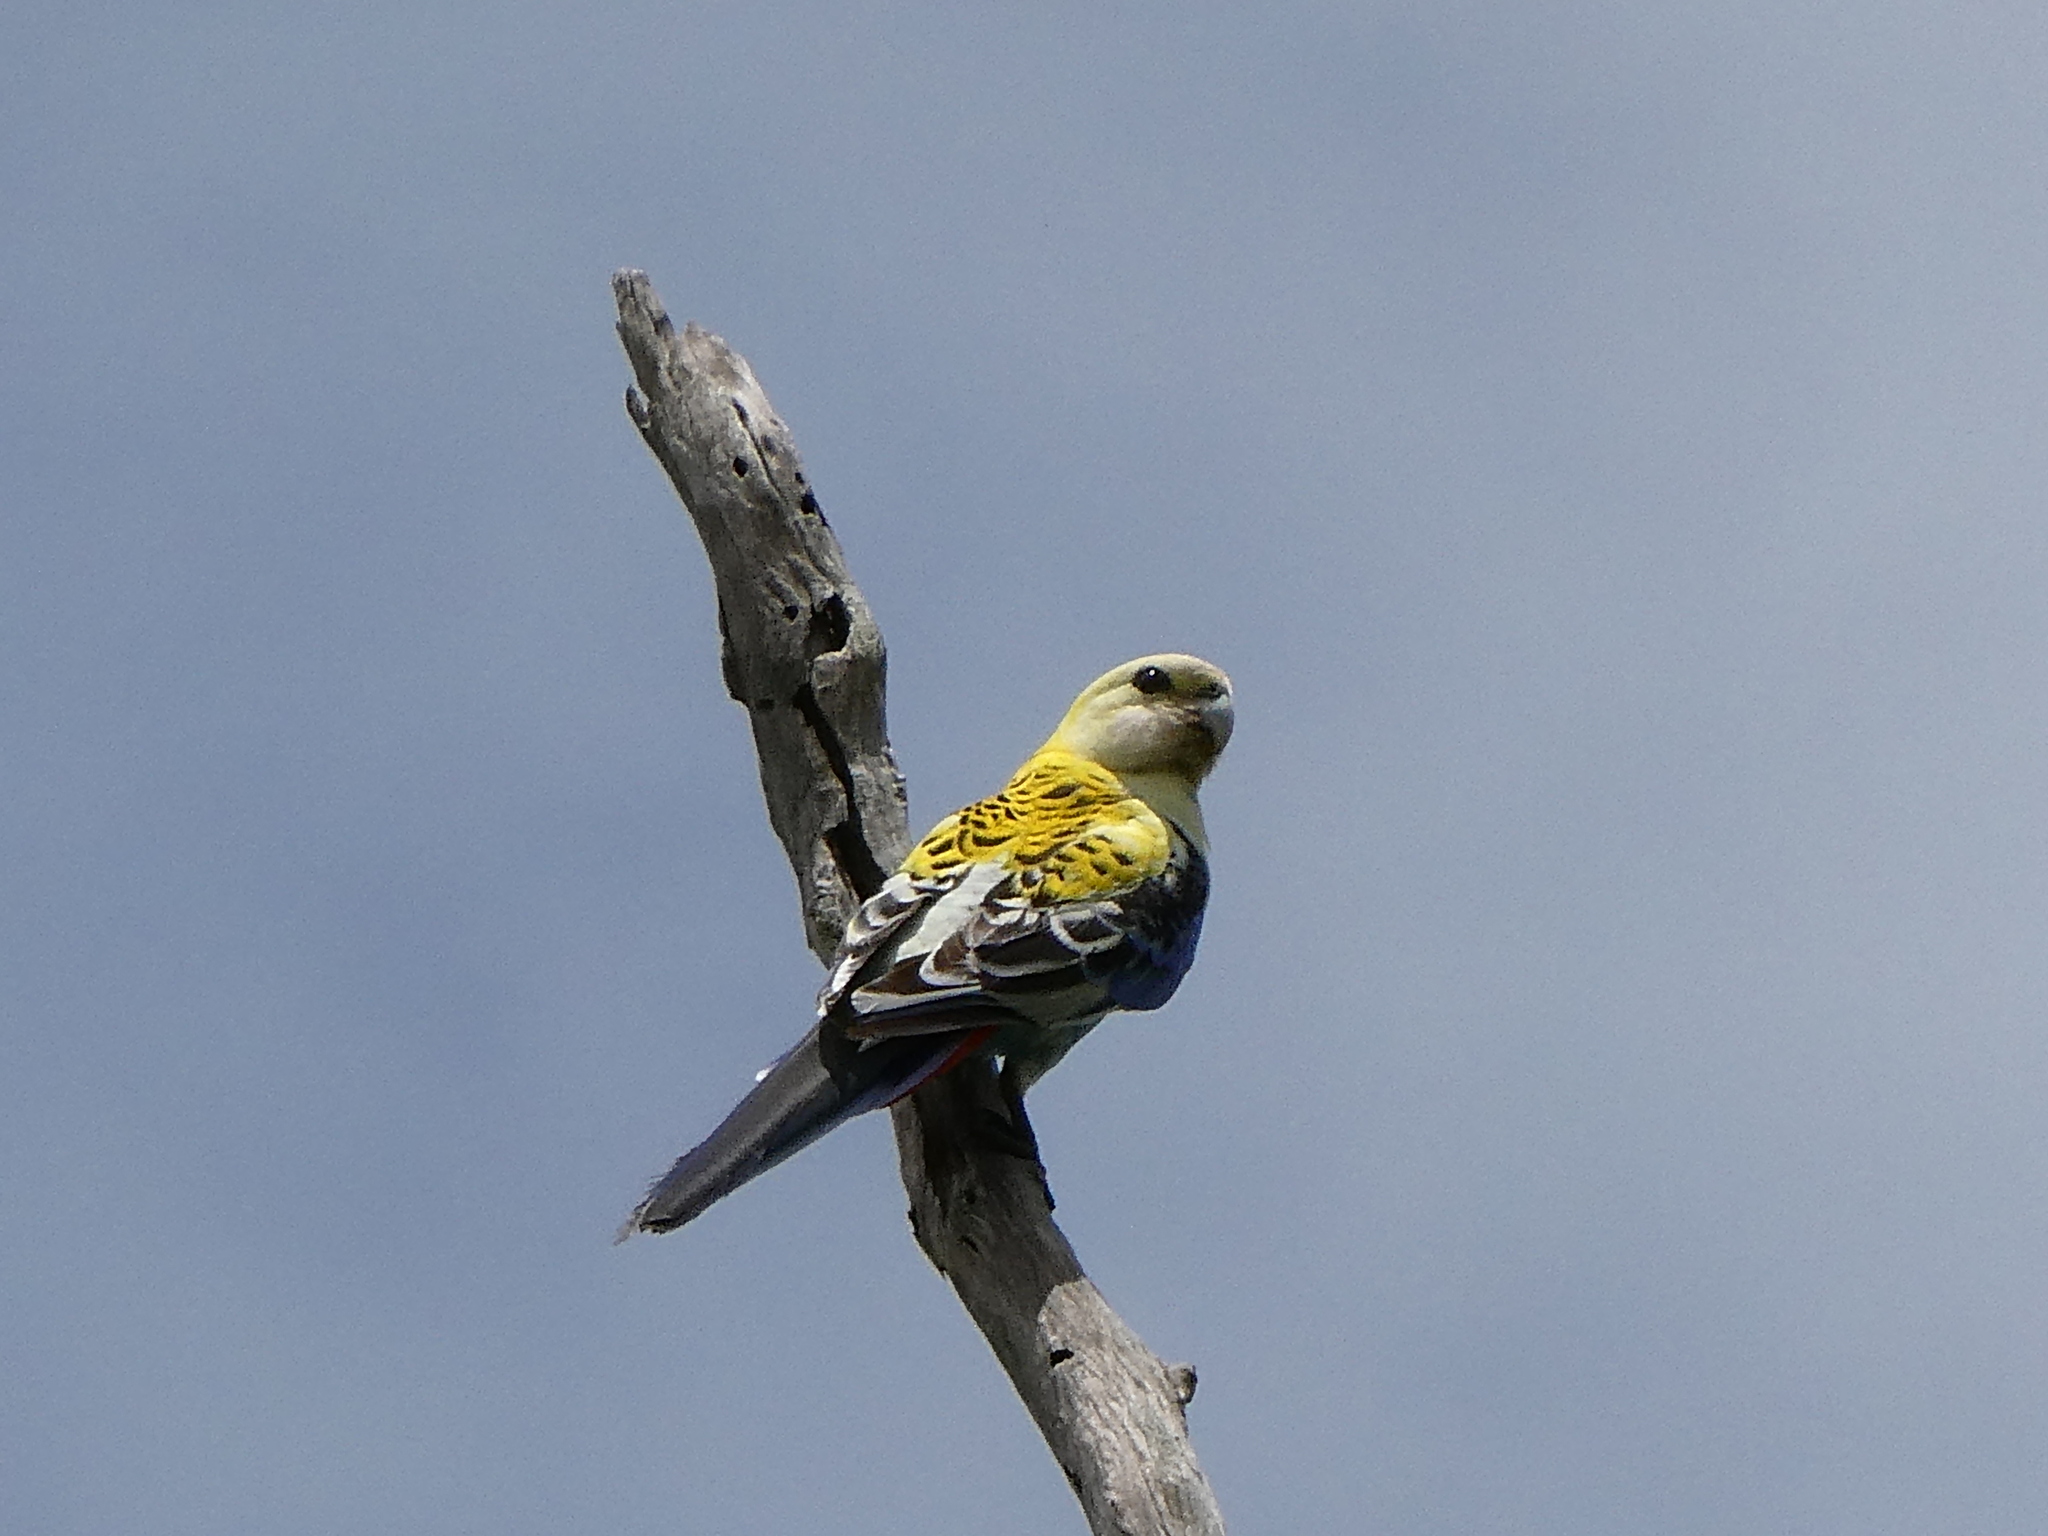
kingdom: Animalia
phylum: Chordata
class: Aves
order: Psittaciformes
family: Psittacidae
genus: Platycercus
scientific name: Platycercus adscitus
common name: Pale-headed rosella
